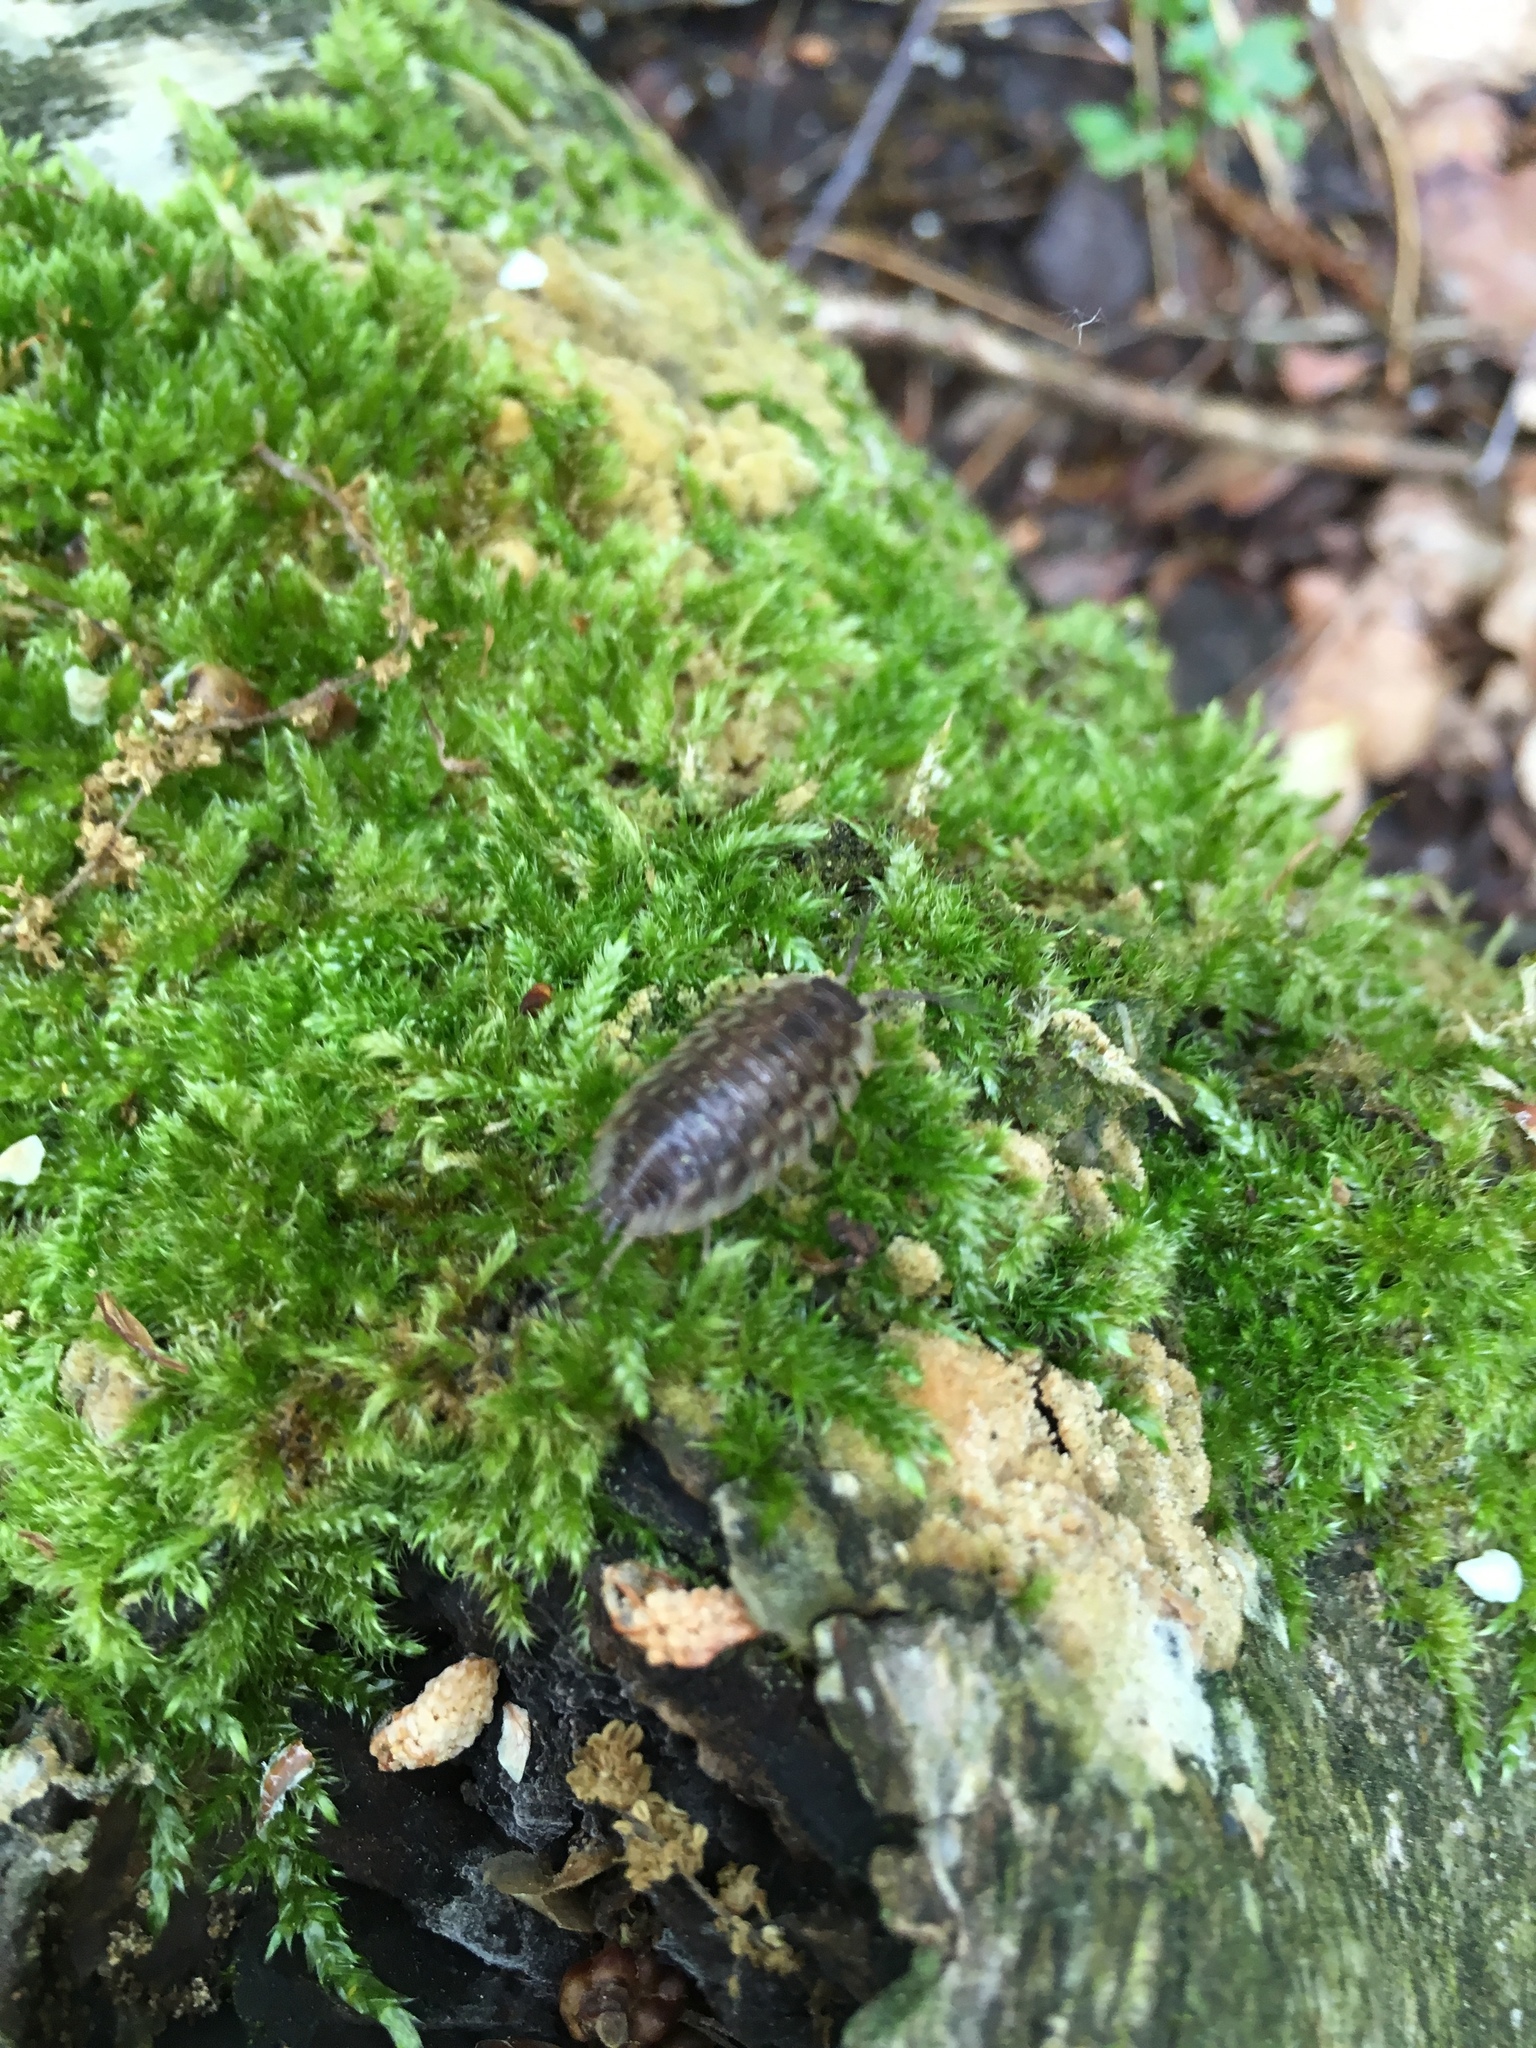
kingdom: Animalia
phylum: Arthropoda
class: Malacostraca
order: Isopoda
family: Oniscidae
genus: Oniscus
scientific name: Oniscus asellus
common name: Common shiny woodlouse
